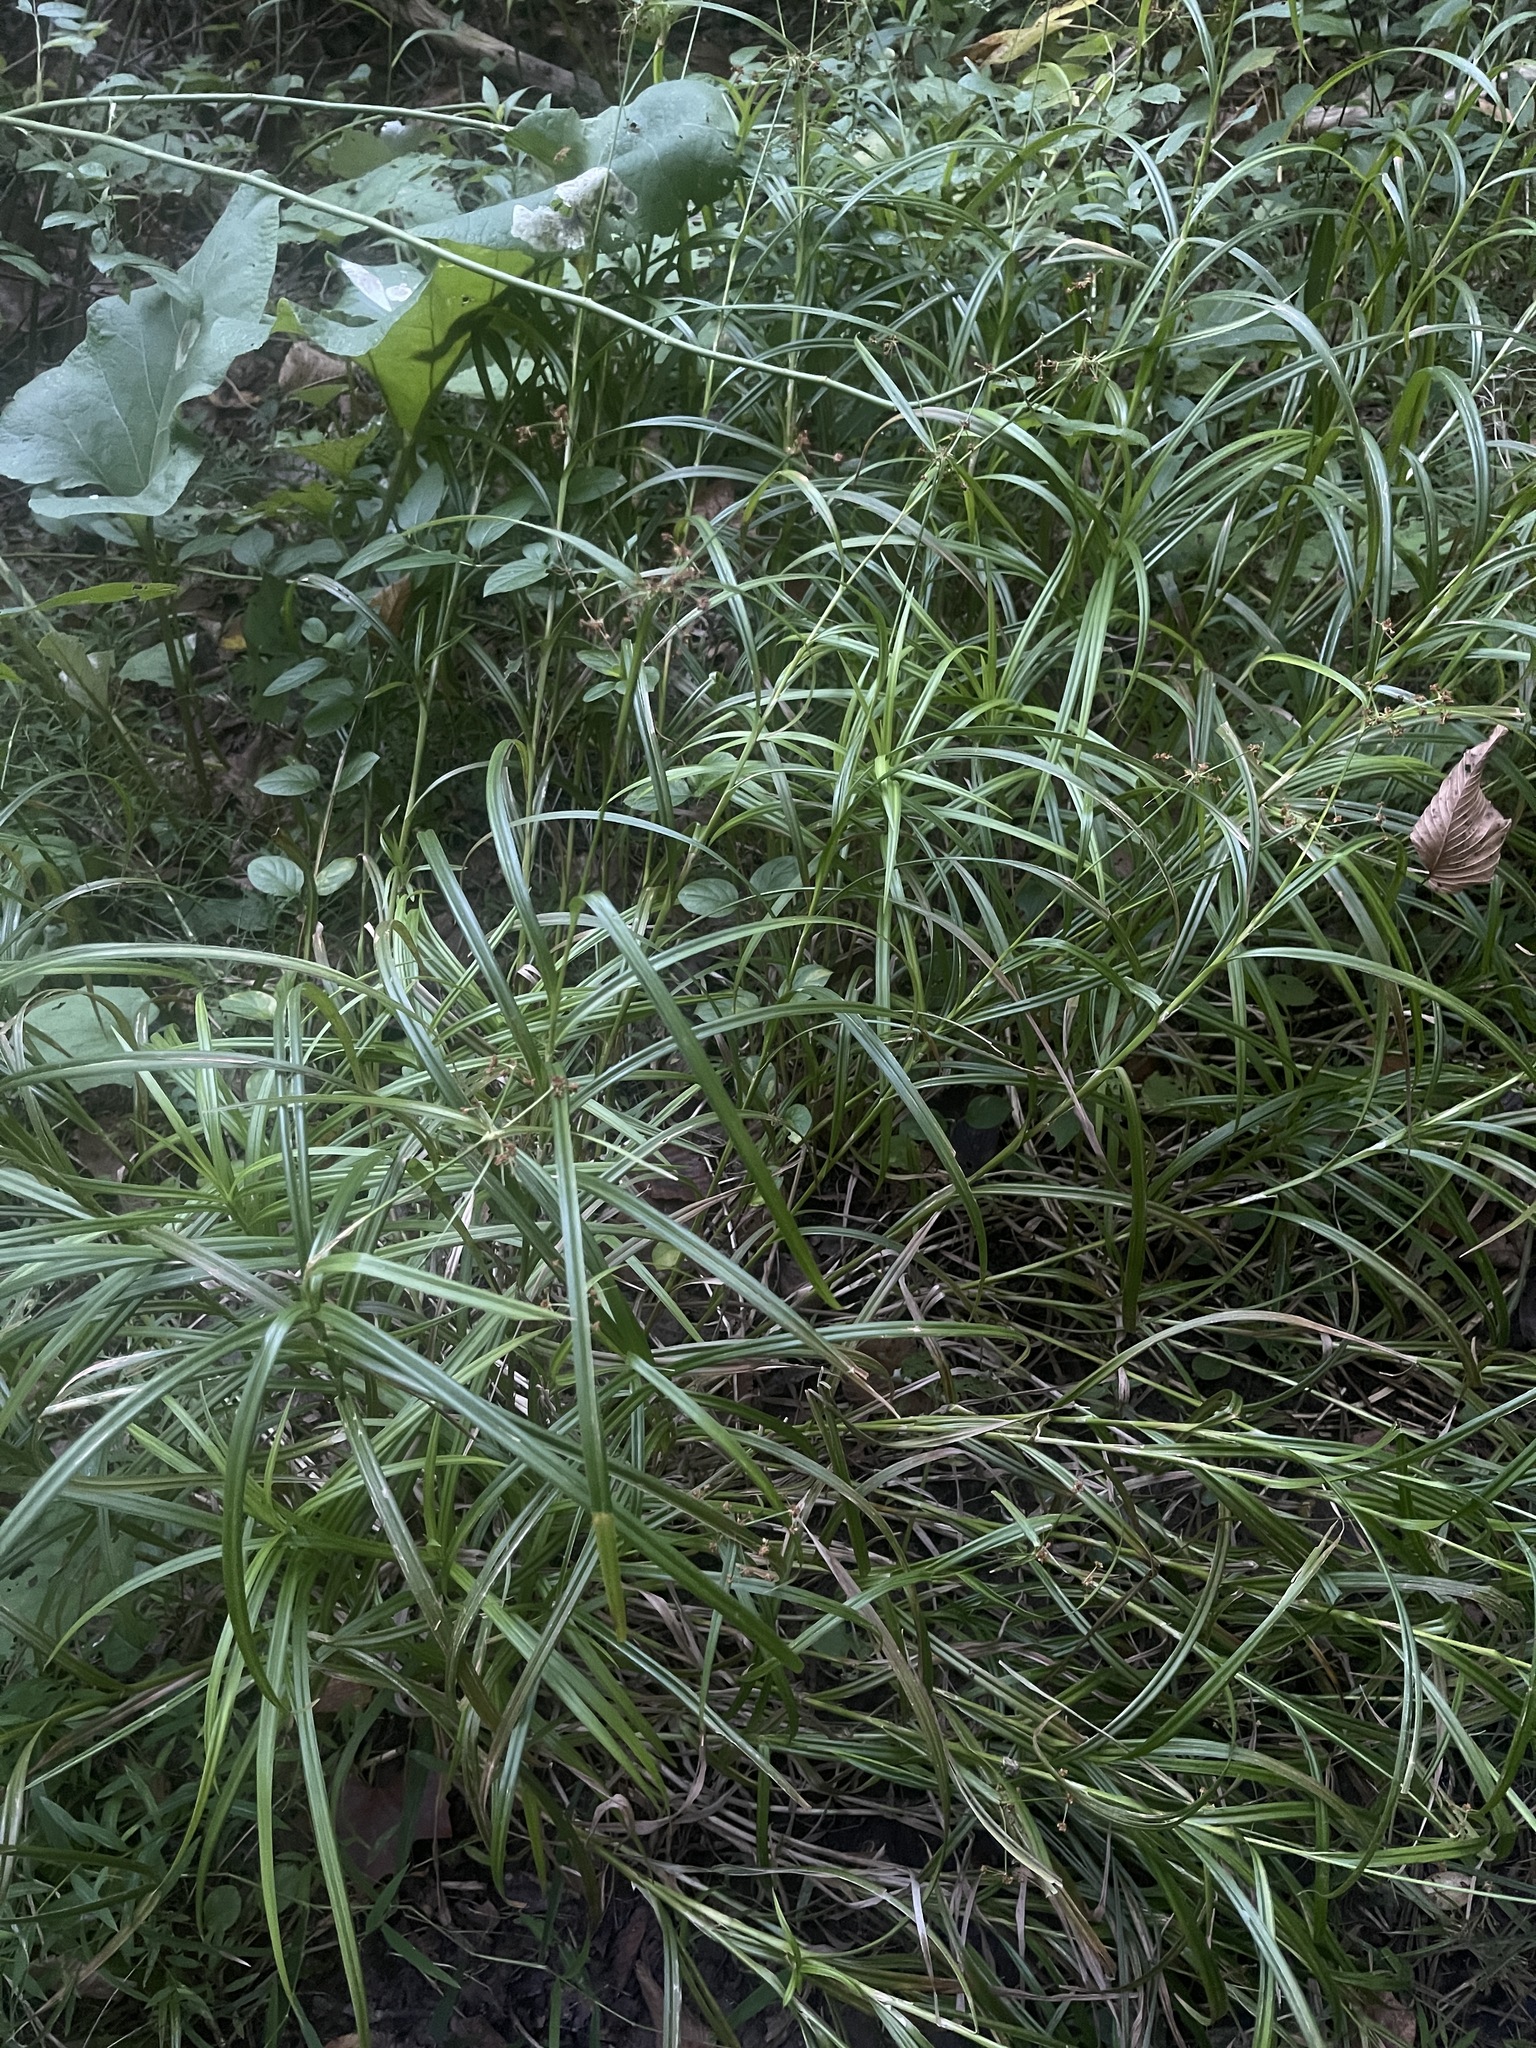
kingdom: Plantae
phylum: Tracheophyta
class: Liliopsida
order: Poales
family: Cyperaceae
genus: Scirpus
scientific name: Scirpus hattorianus
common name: Early dark-green bulrush
